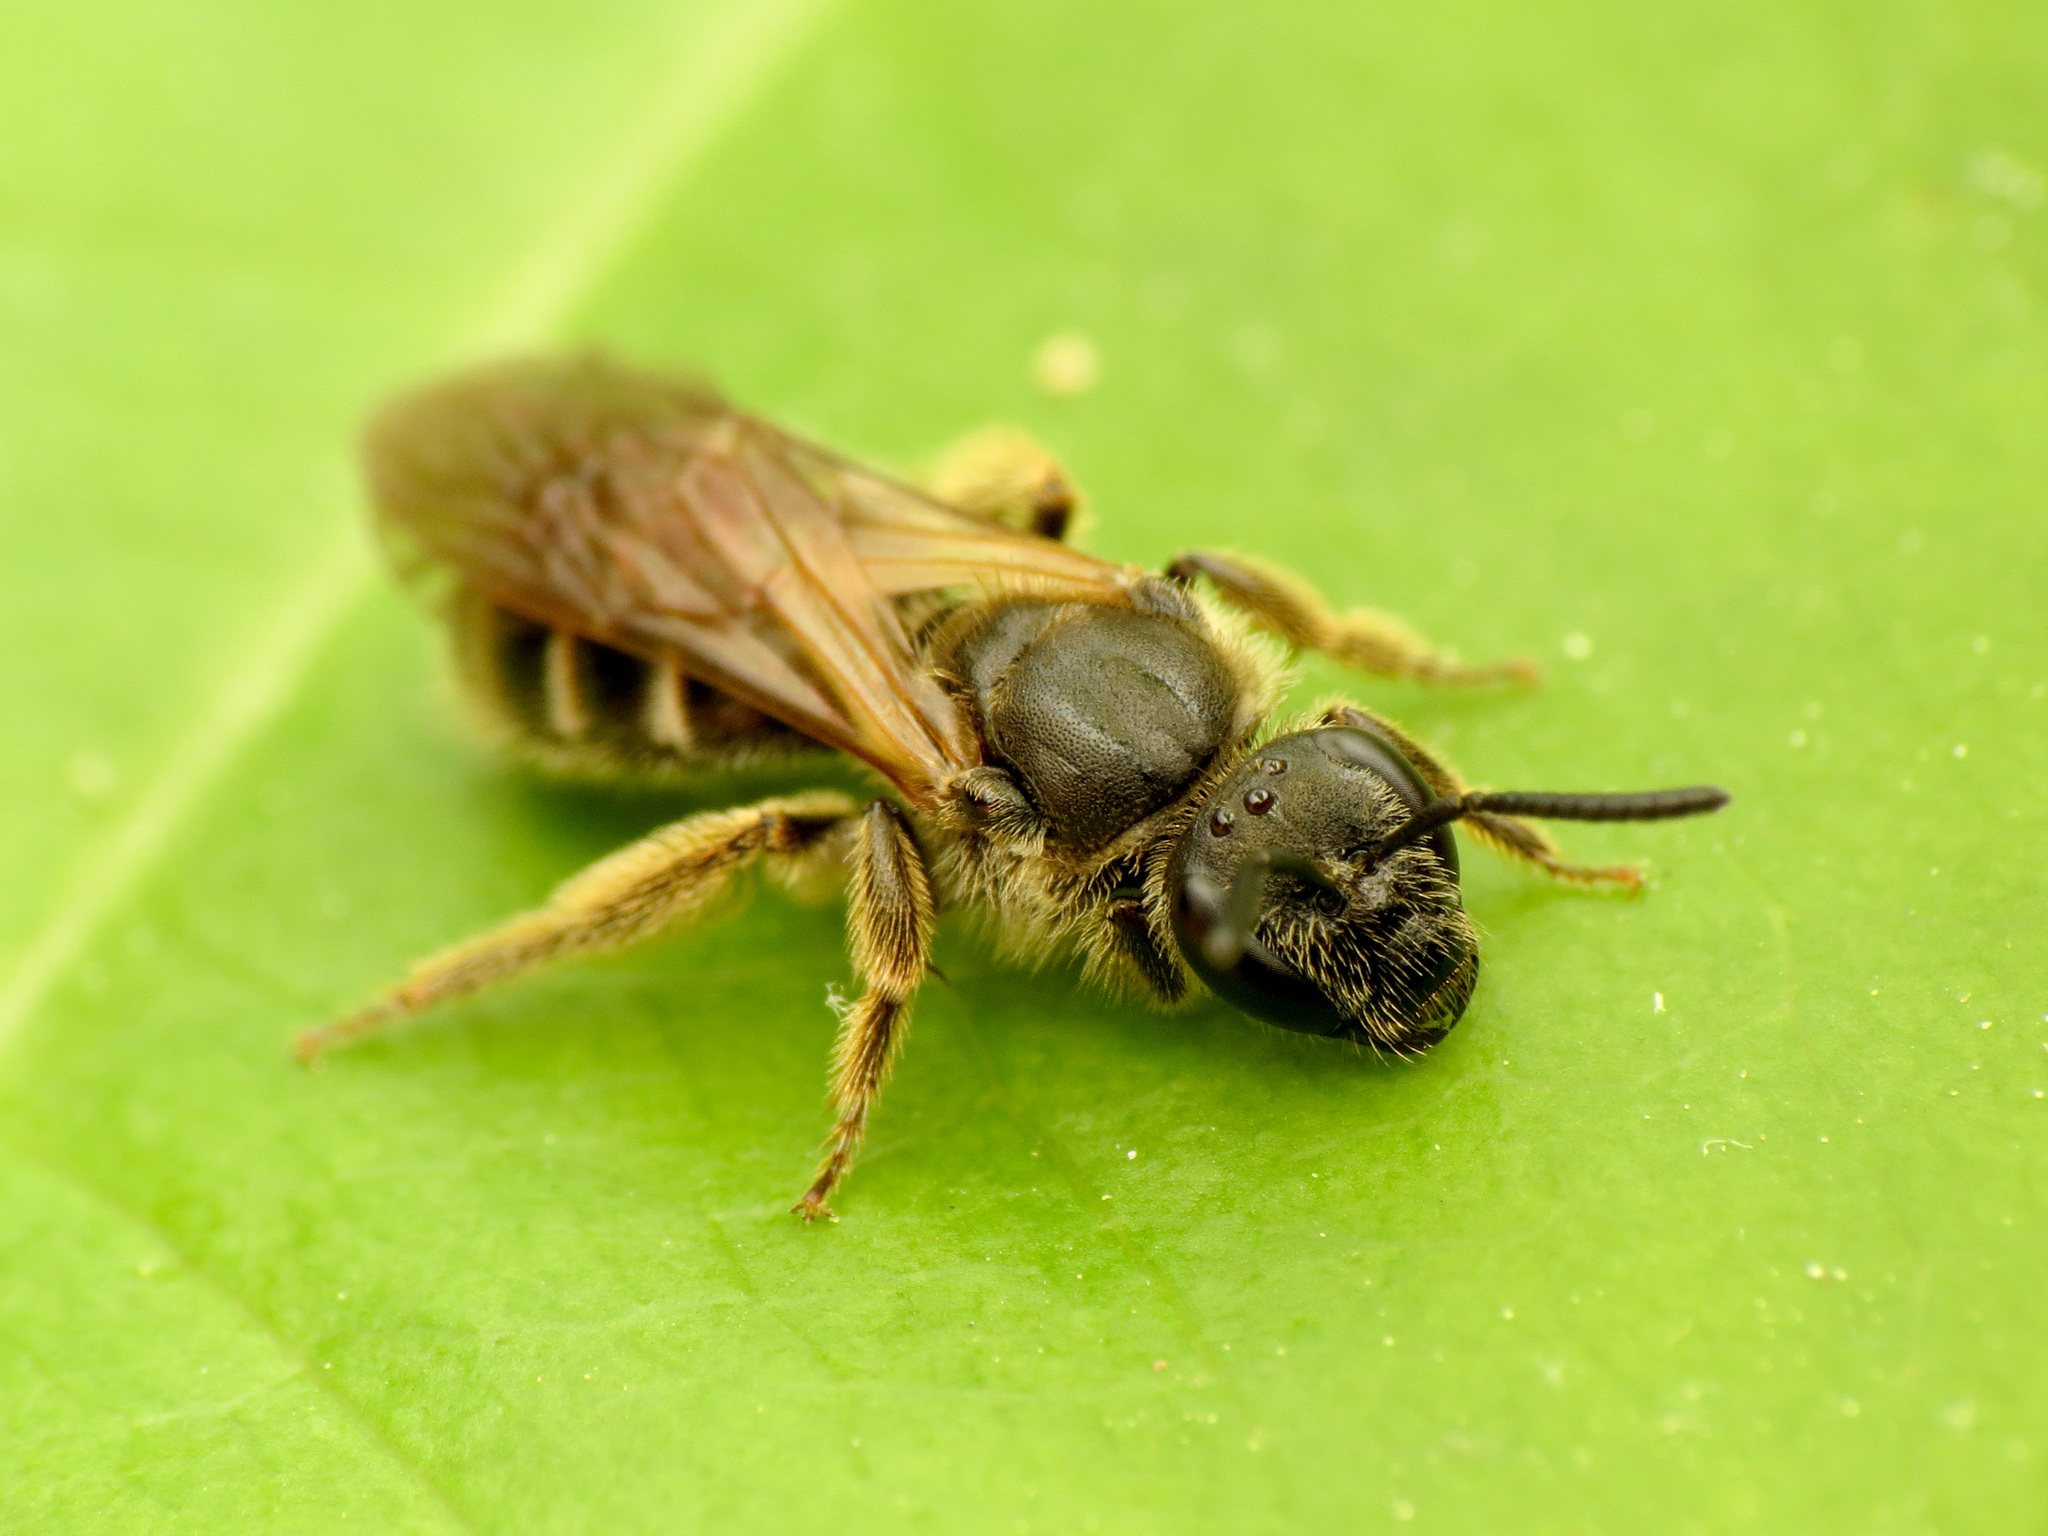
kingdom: Animalia
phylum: Arthropoda
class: Insecta
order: Hymenoptera
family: Halictidae
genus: Lasioglossum
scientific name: Lasioglossum quebecense
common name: Quebec sweat bee
